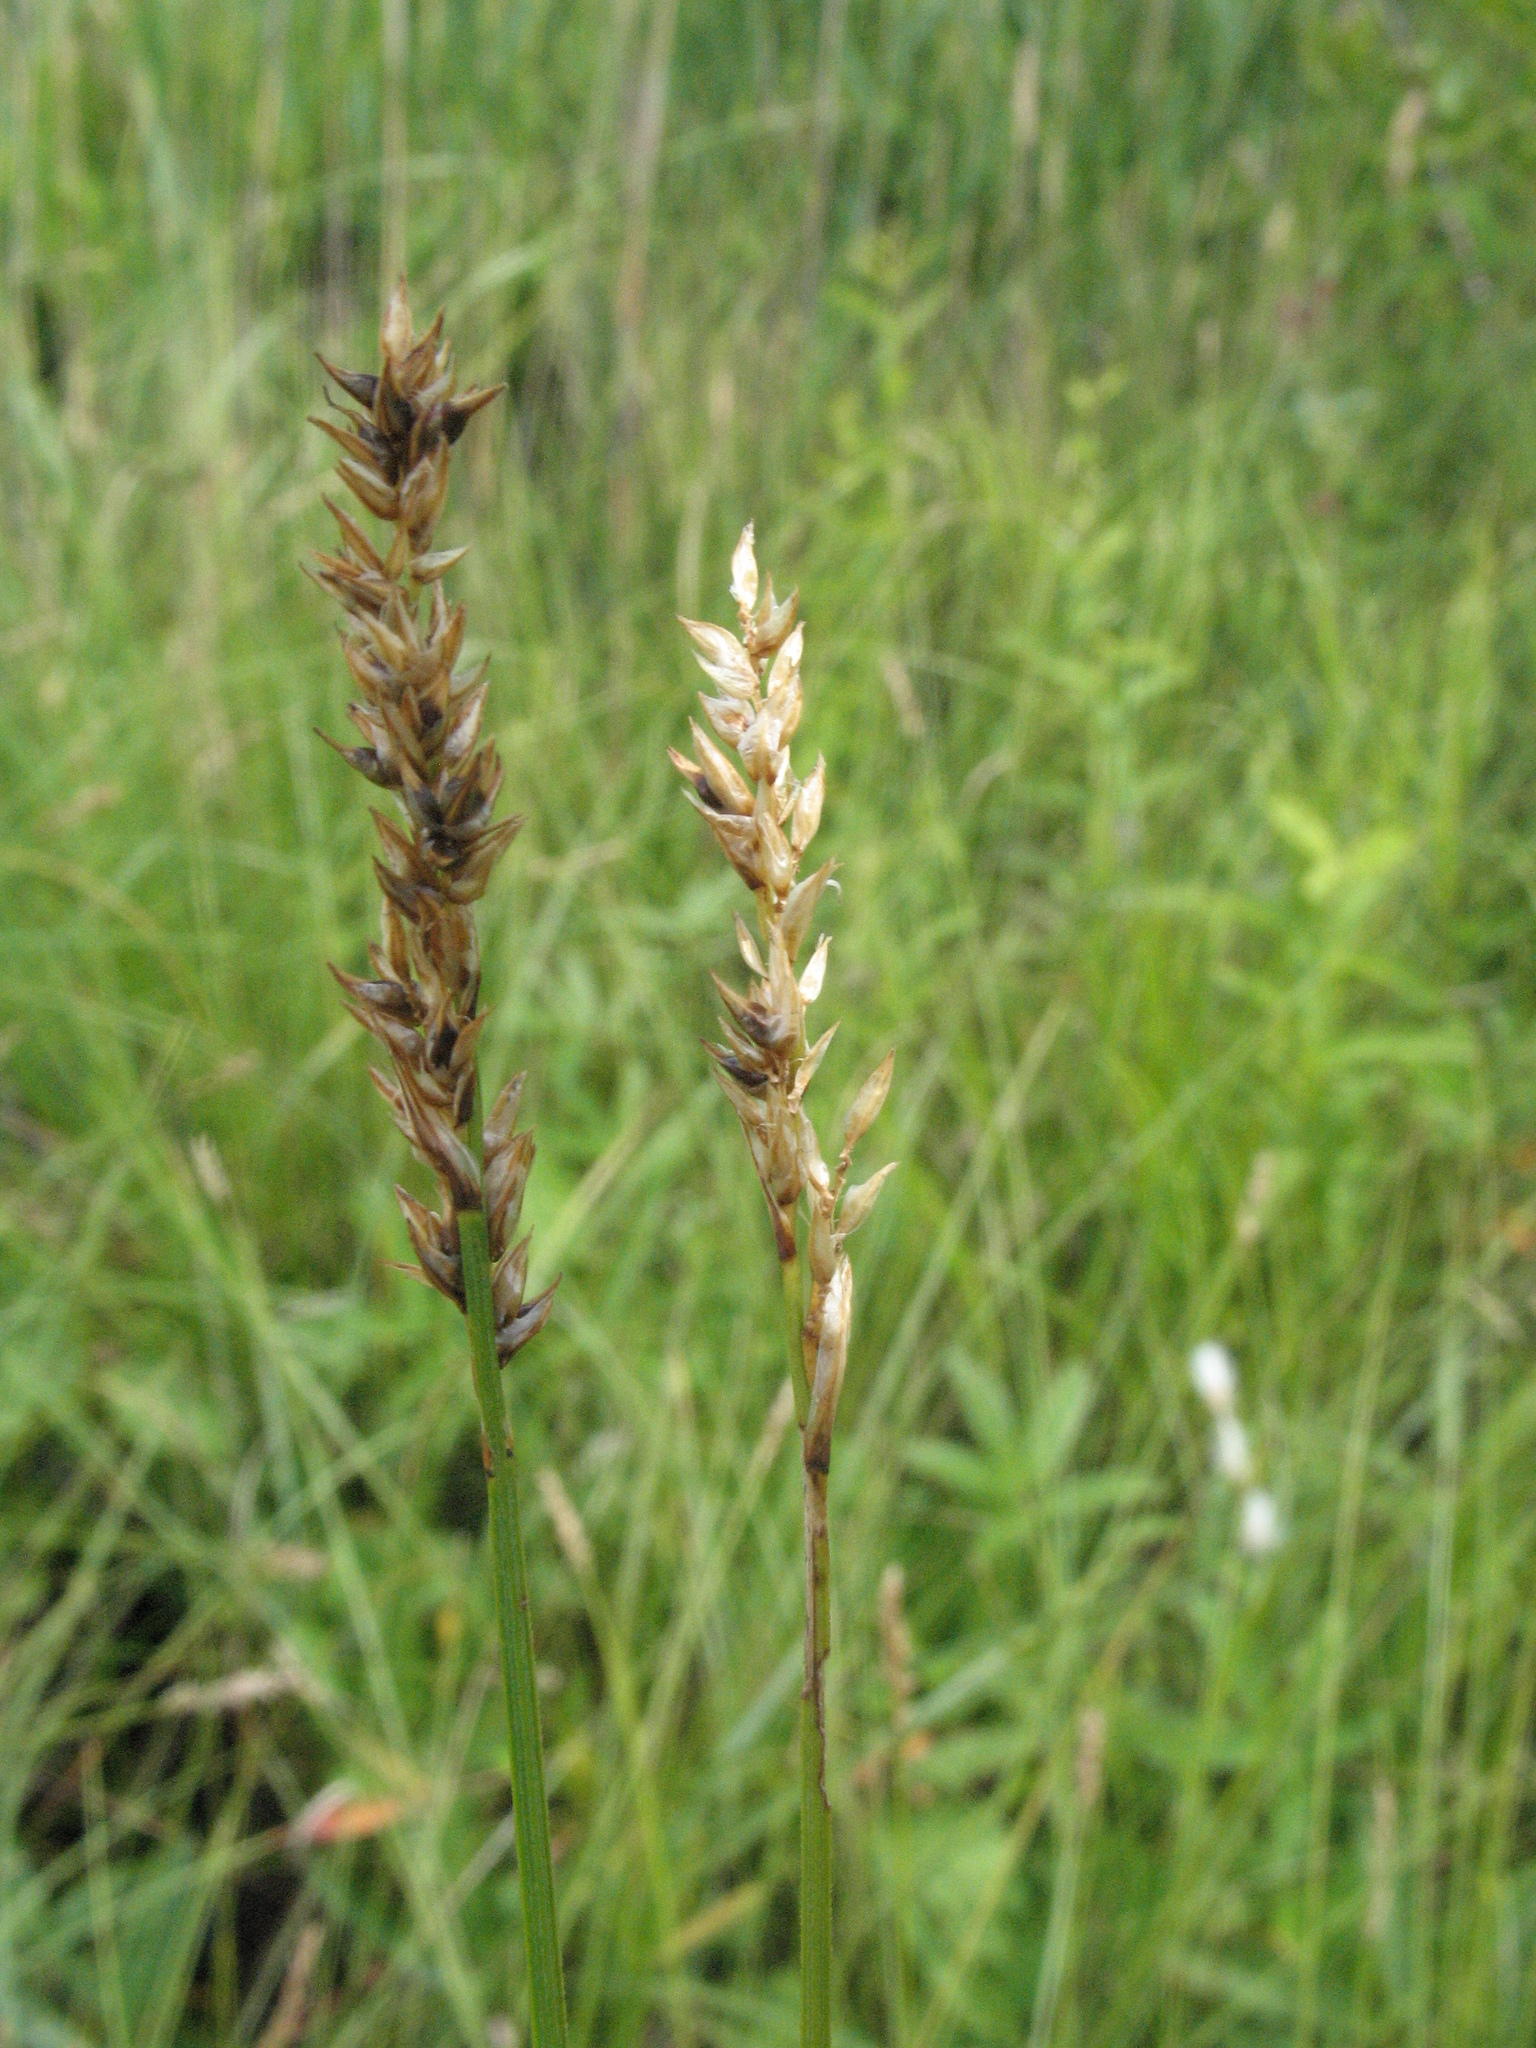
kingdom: Plantae
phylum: Tracheophyta
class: Liliopsida
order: Poales
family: Cyperaceae
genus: Carex
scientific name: Carex diandra
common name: Lesser tussock-sedge
